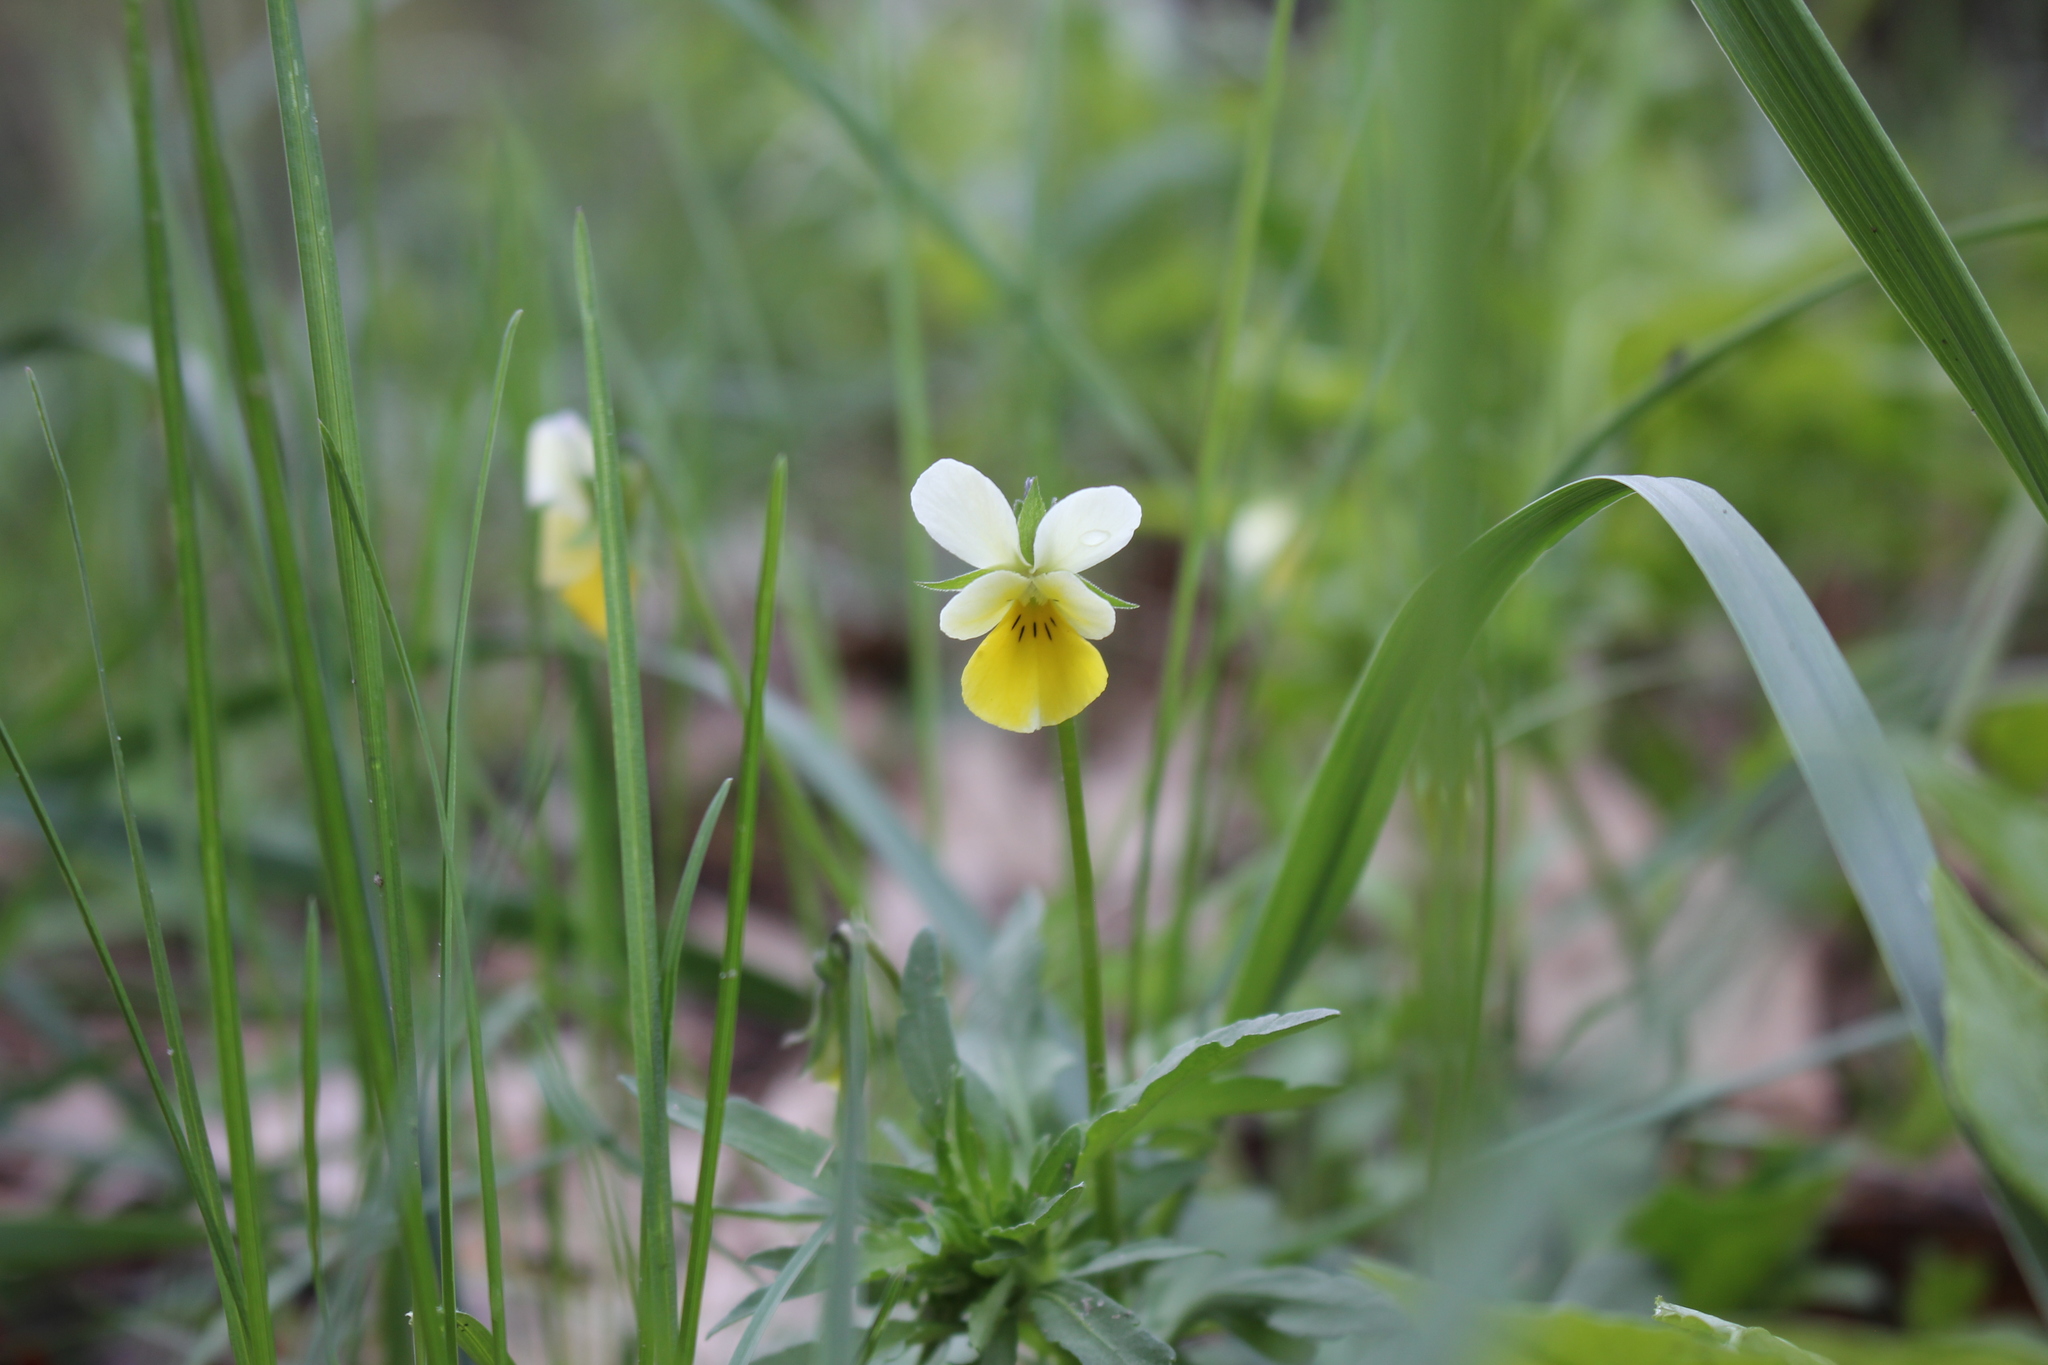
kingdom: Plantae
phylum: Tracheophyta
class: Magnoliopsida
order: Malpighiales
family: Violaceae
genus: Viola
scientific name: Viola arvensis
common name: Field pansy
